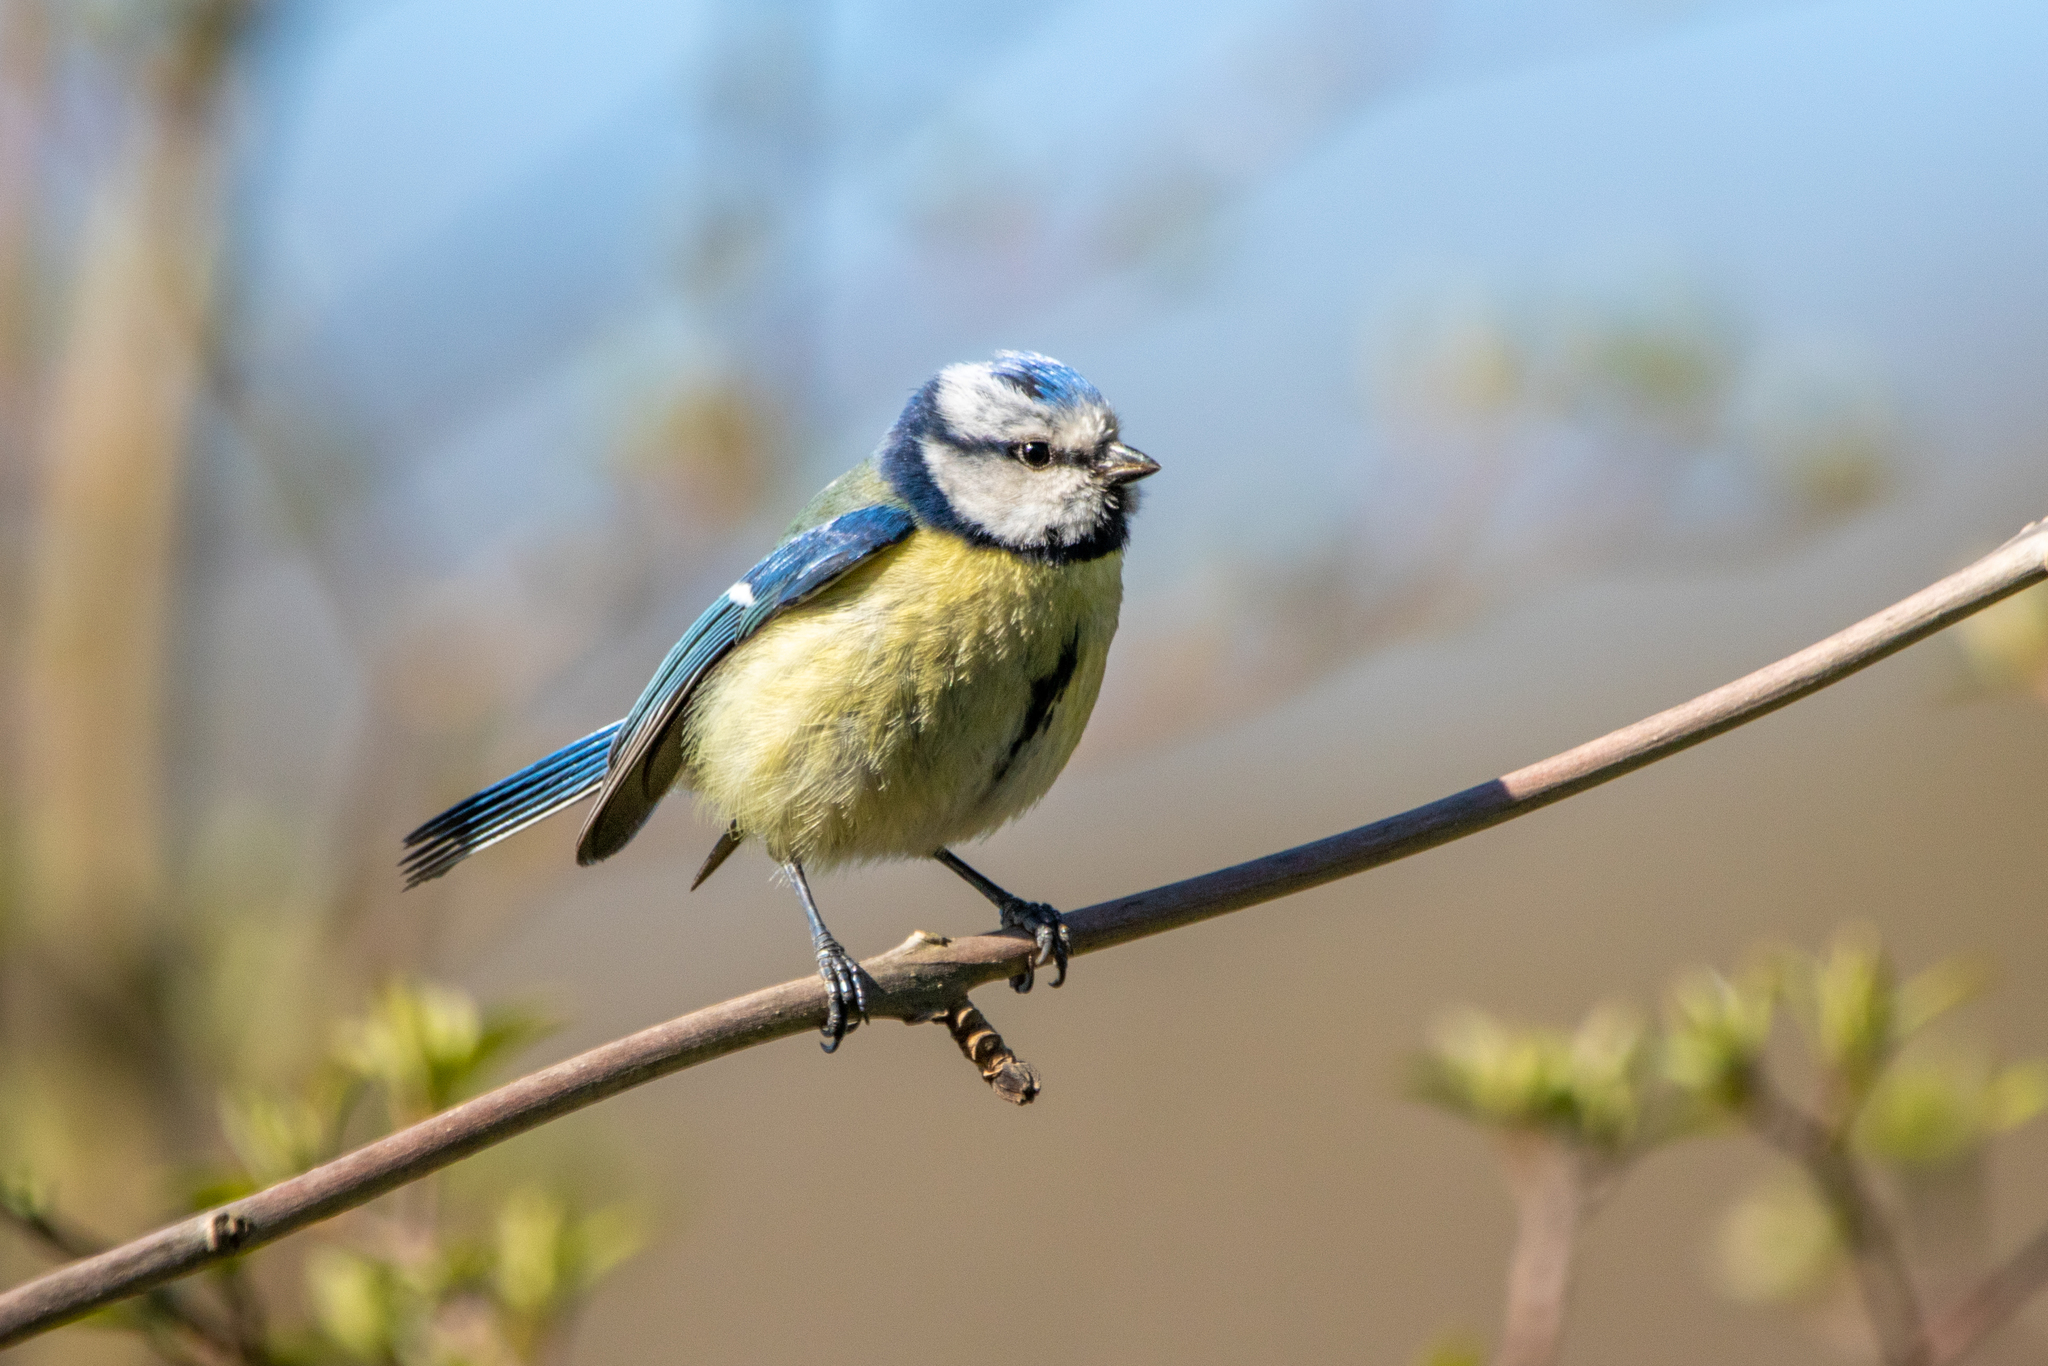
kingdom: Animalia
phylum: Chordata
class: Aves
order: Passeriformes
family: Paridae
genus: Cyanistes
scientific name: Cyanistes caeruleus
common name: Eurasian blue tit
